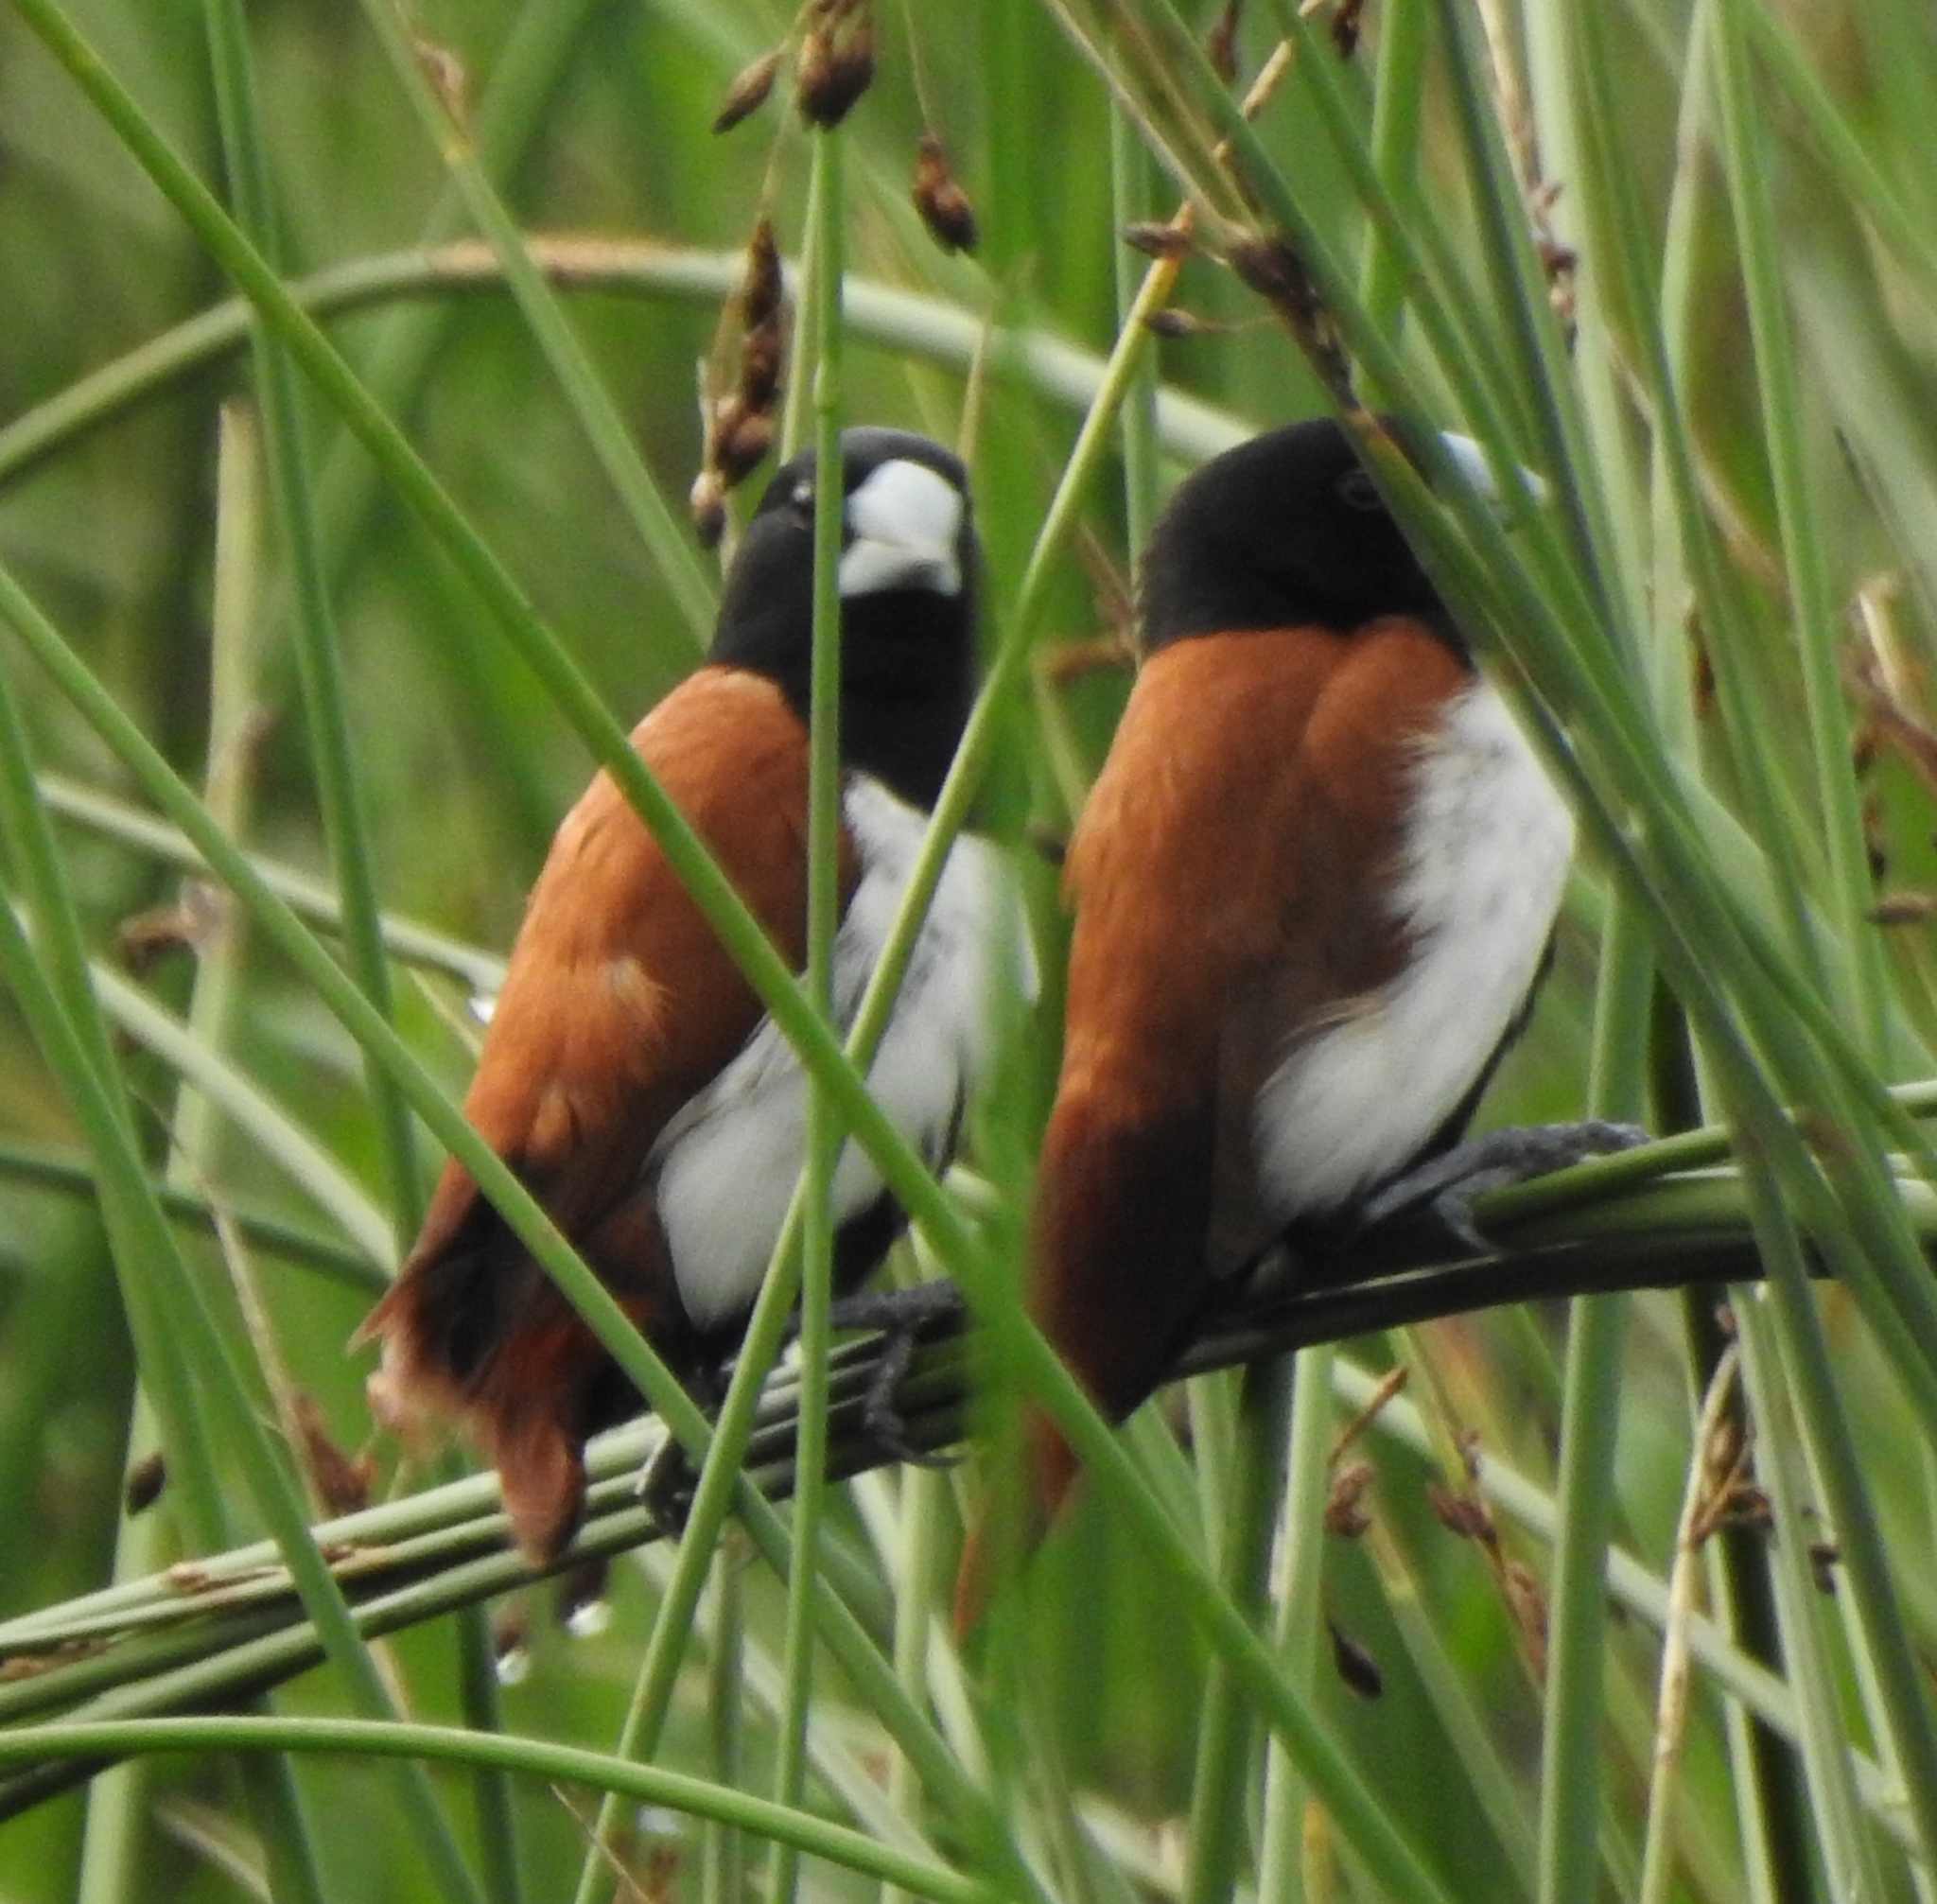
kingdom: Animalia
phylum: Chordata
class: Aves
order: Passeriformes
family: Estrildidae
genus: Lonchura
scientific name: Lonchura malacca
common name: Tricolored munia
